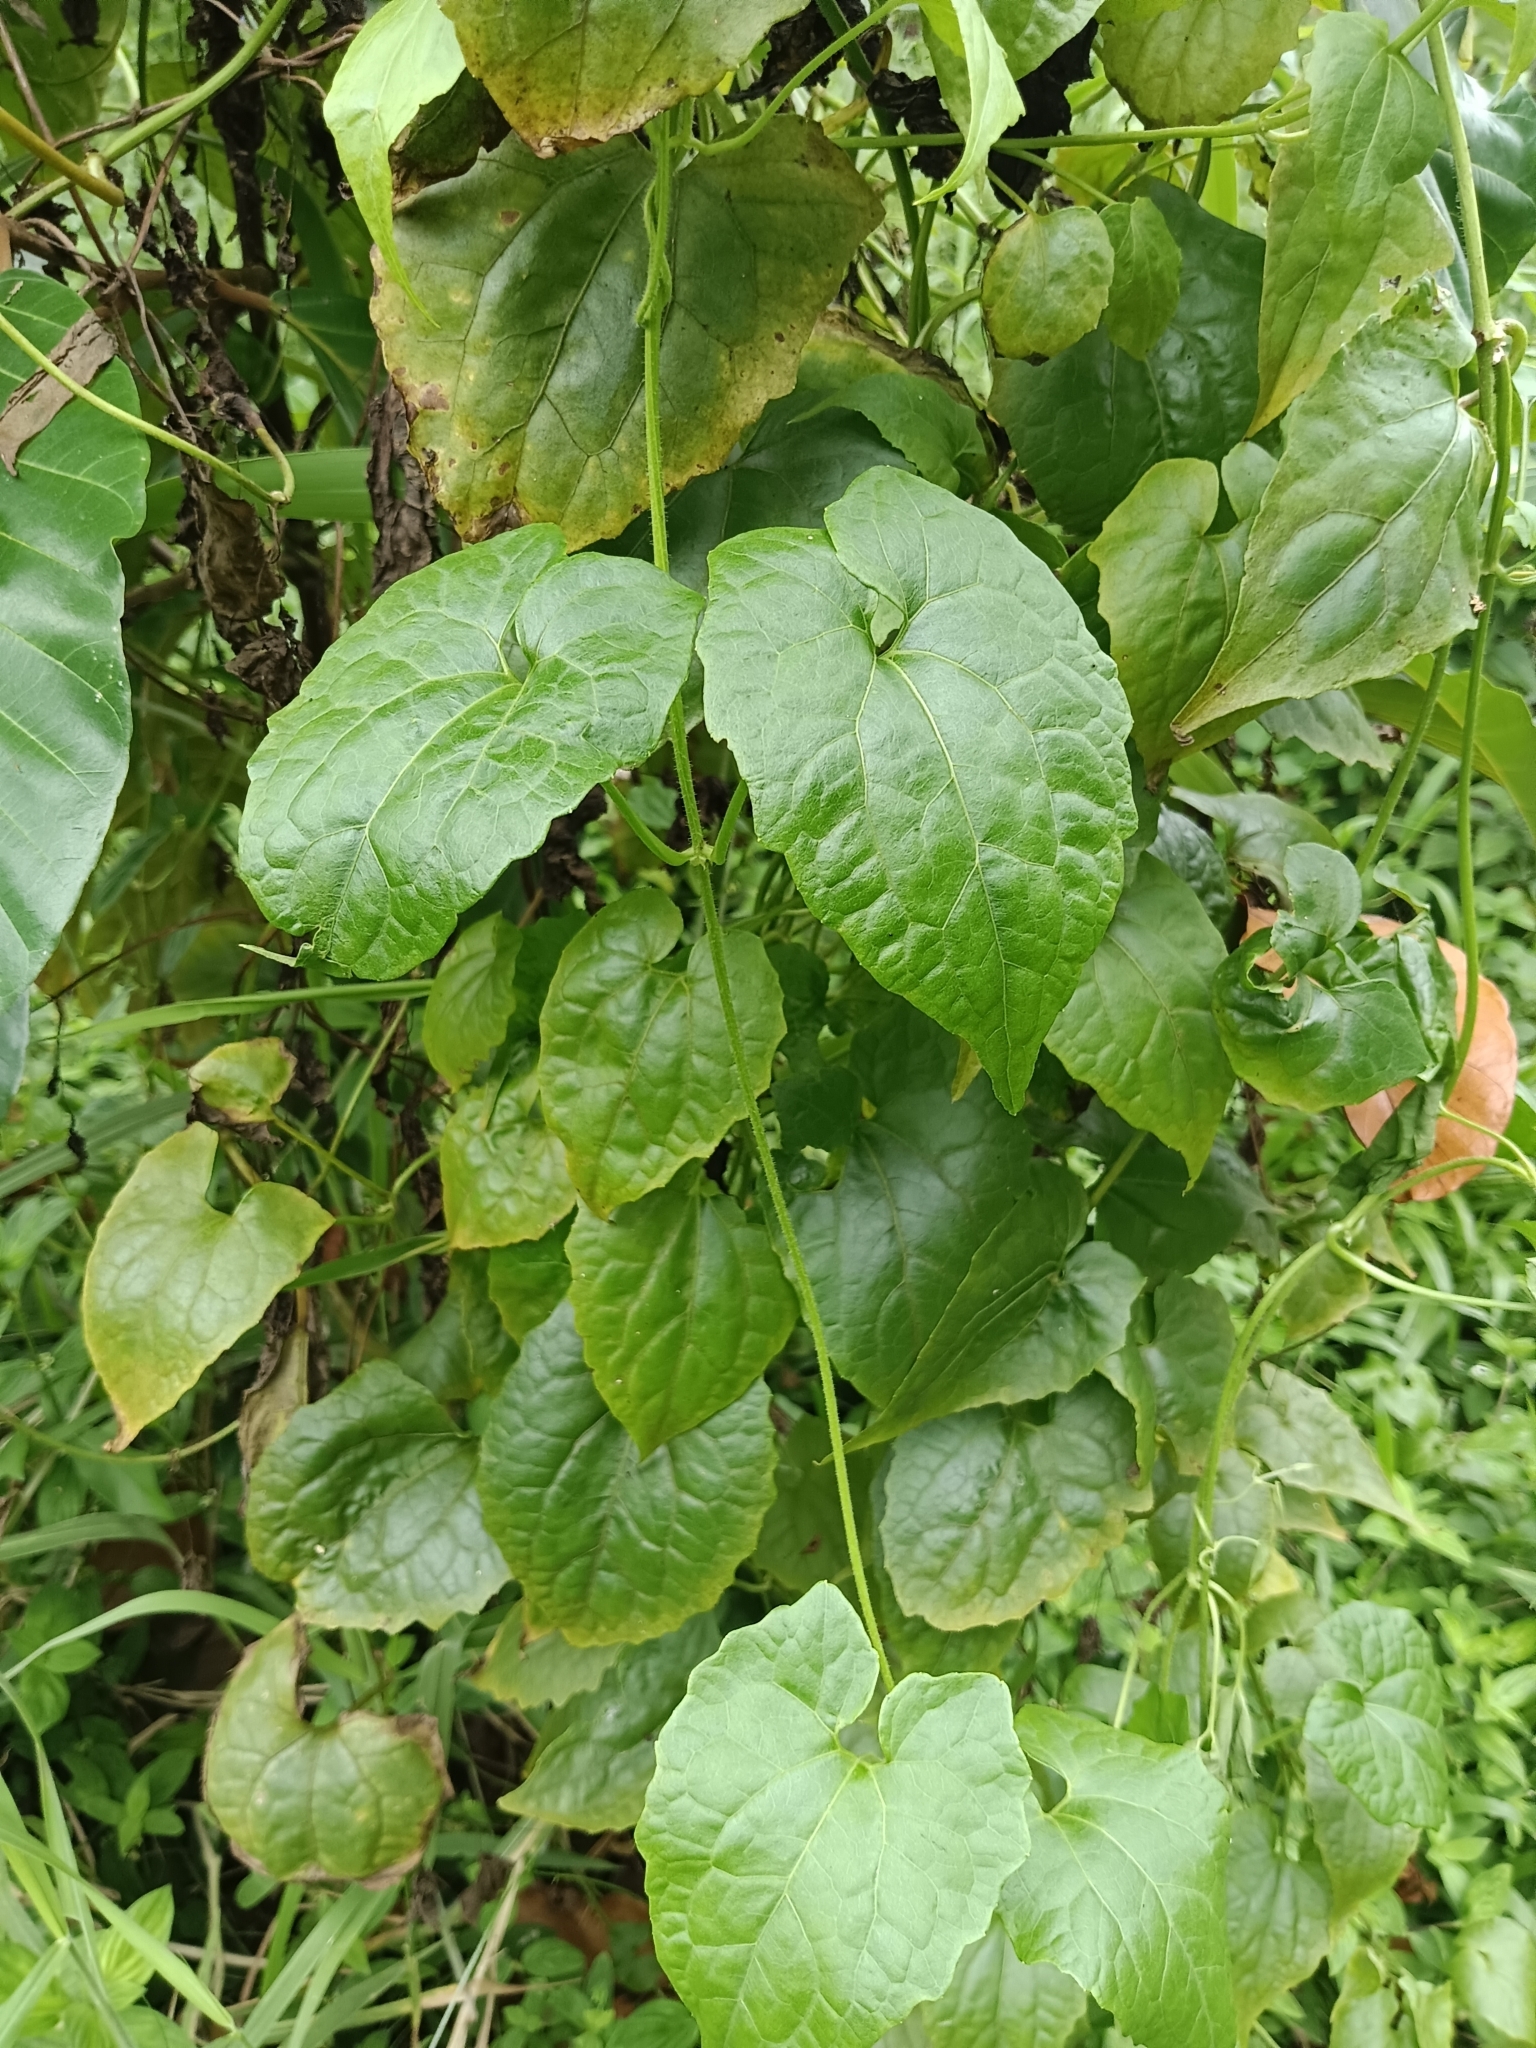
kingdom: Plantae
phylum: Tracheophyta
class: Magnoliopsida
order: Asterales
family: Asteraceae
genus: Mikania
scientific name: Mikania micrantha
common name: Mile-a-minute
